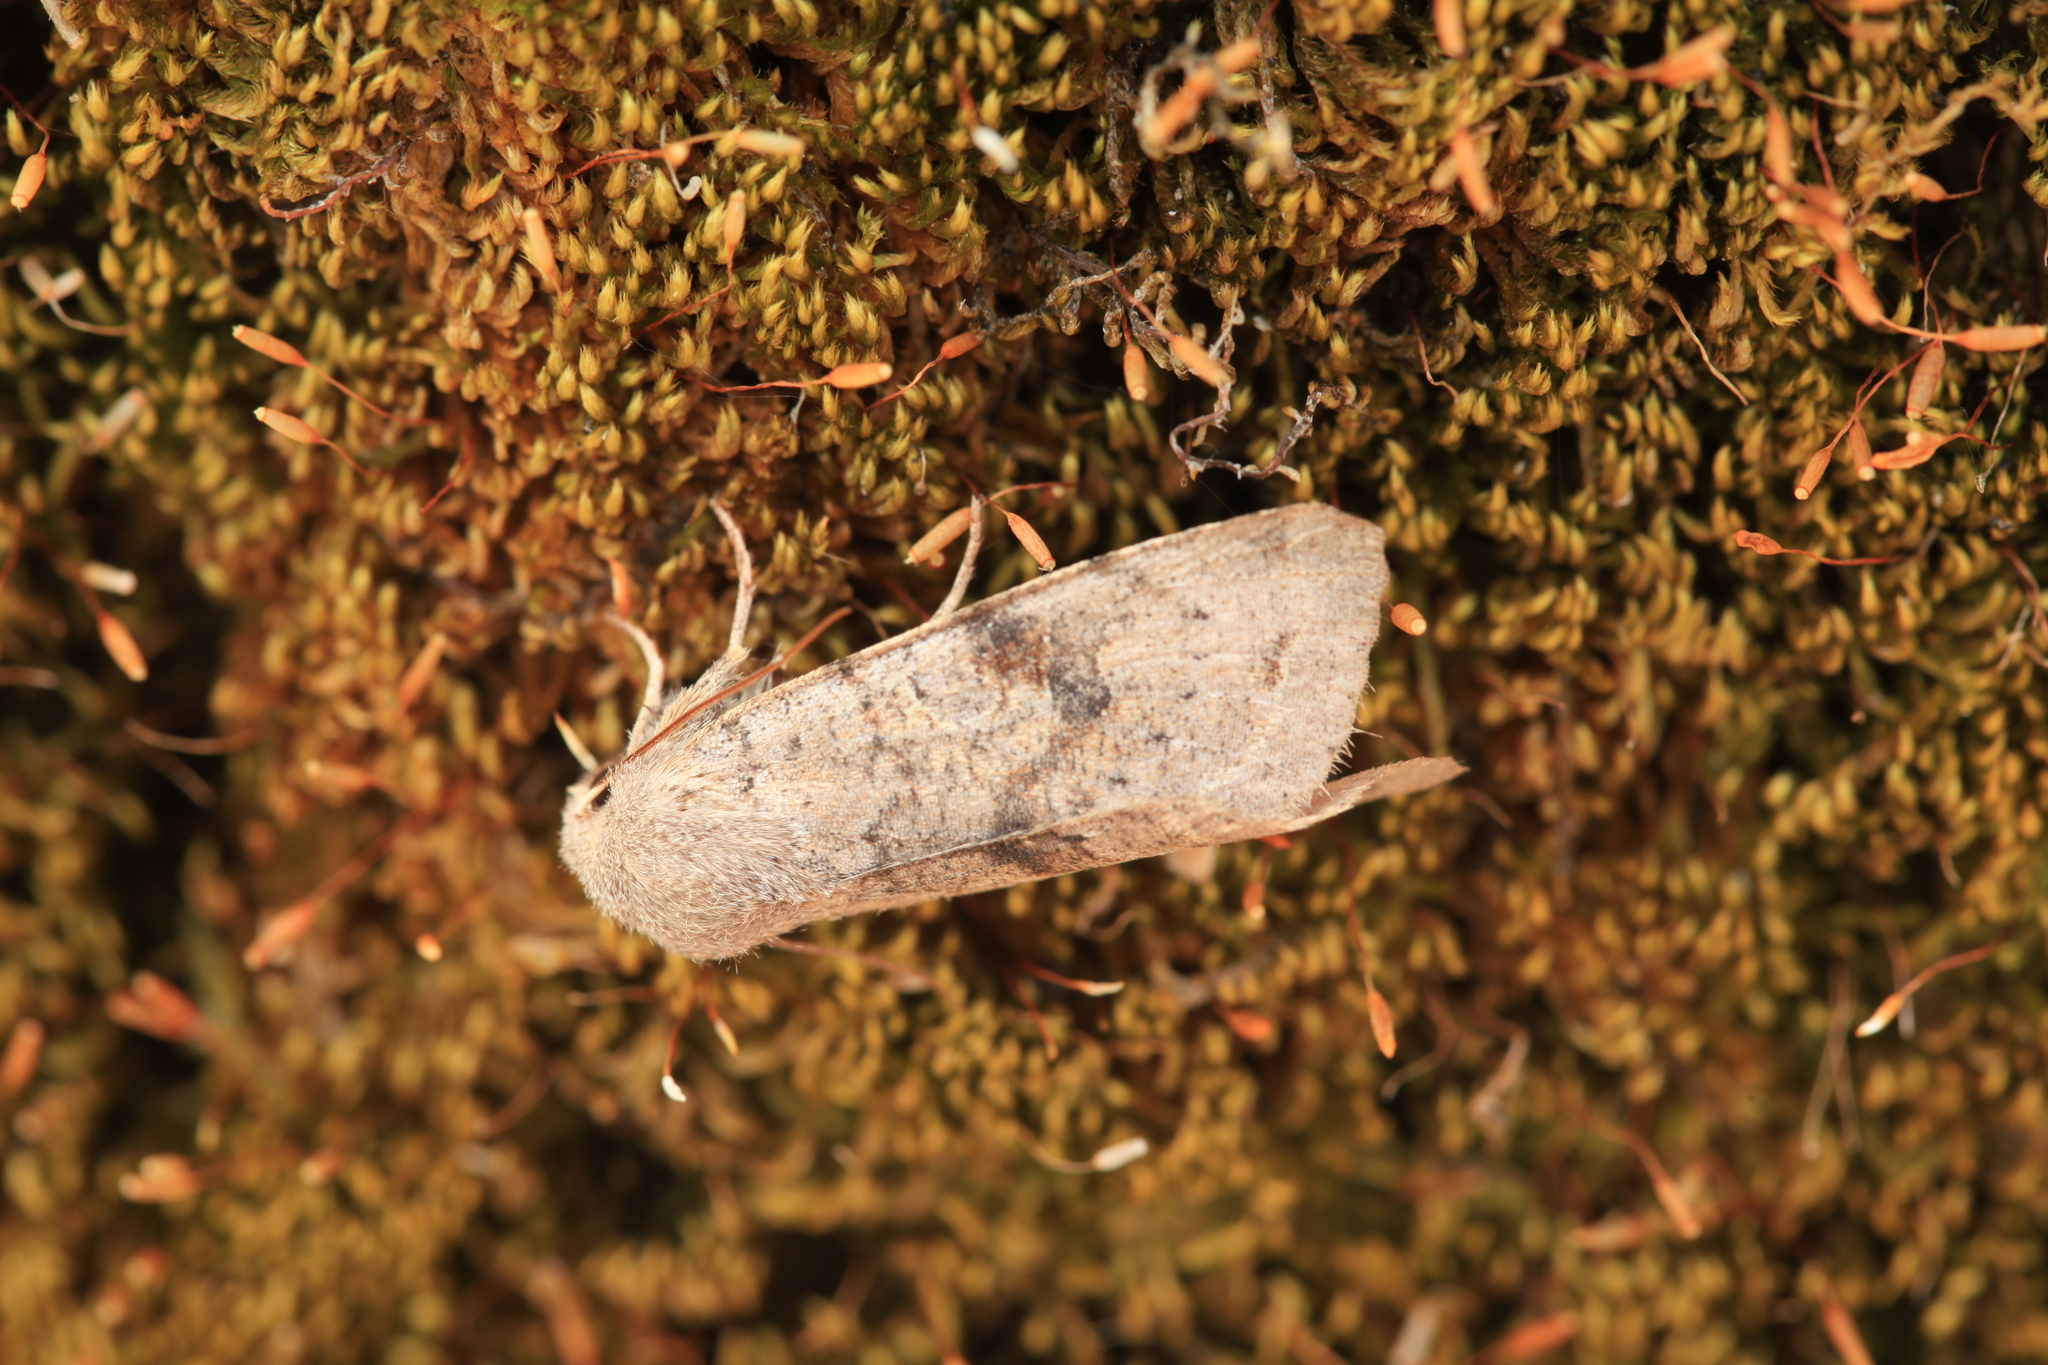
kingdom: Animalia
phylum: Arthropoda
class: Insecta
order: Lepidoptera
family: Noctuidae
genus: Orthosia
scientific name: Orthosia incerta
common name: Clouded drab
